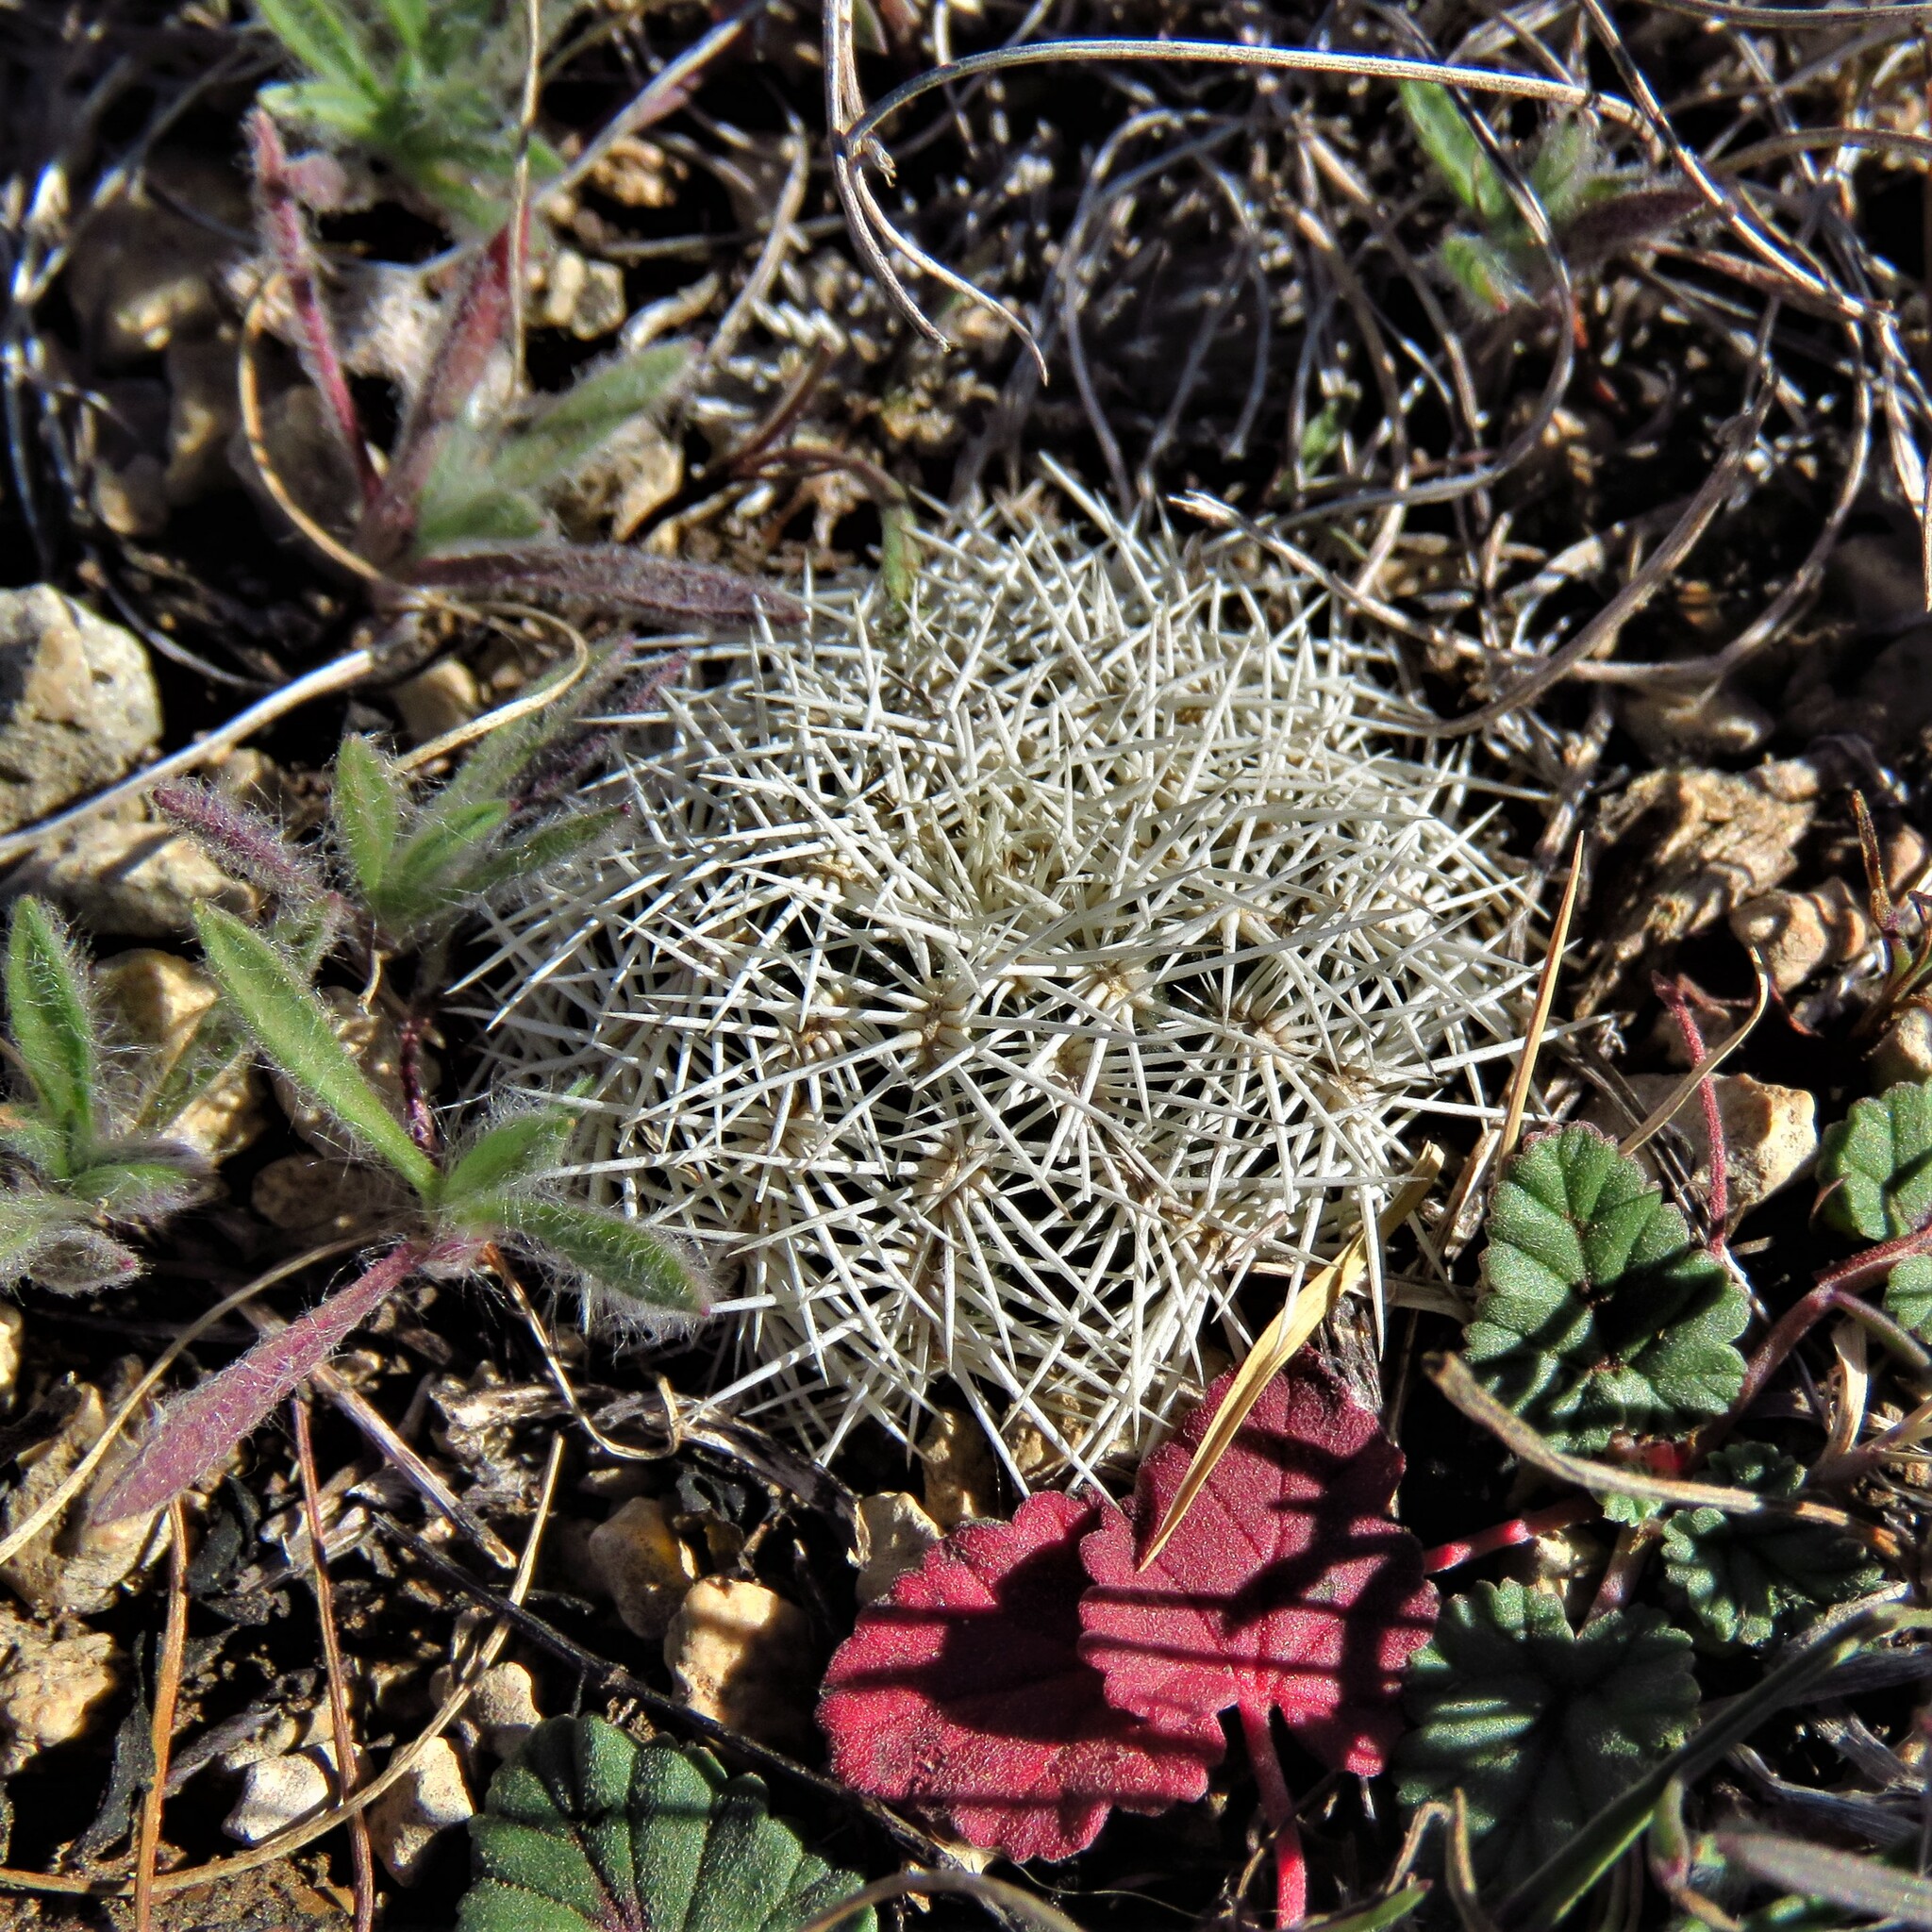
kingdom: Plantae
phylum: Tracheophyta
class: Magnoliopsida
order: Caryophyllales
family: Cactaceae
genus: Echinocereus
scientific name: Echinocereus reichenbachii
